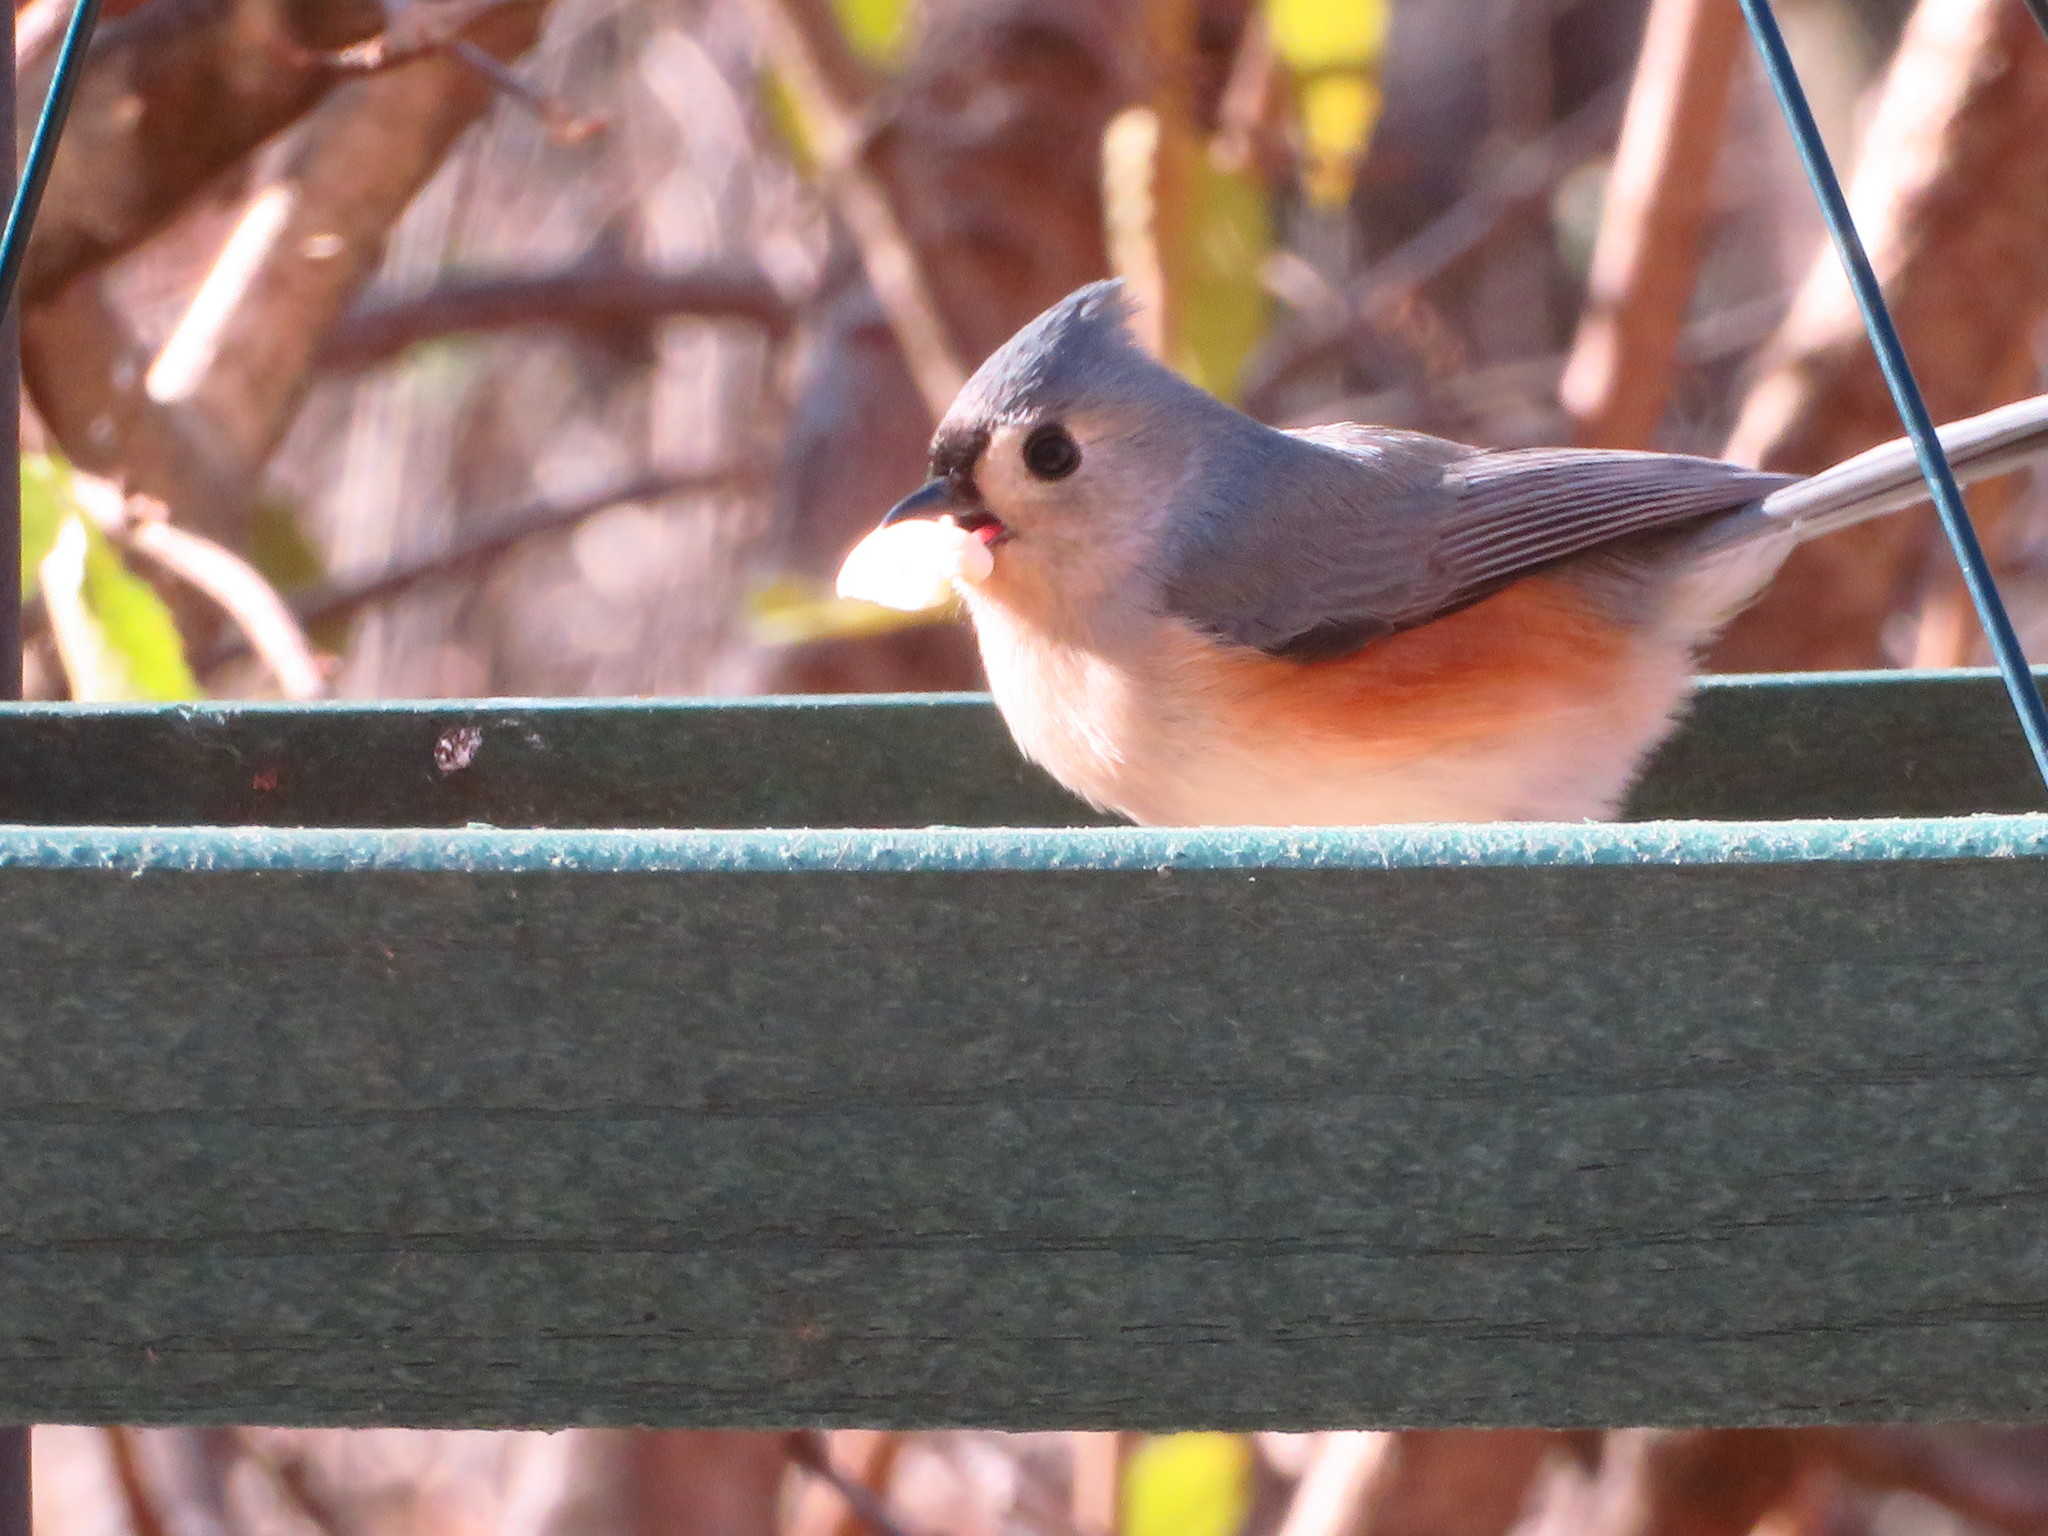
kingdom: Animalia
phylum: Chordata
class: Aves
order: Passeriformes
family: Paridae
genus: Baeolophus
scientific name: Baeolophus bicolor
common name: Tufted titmouse
